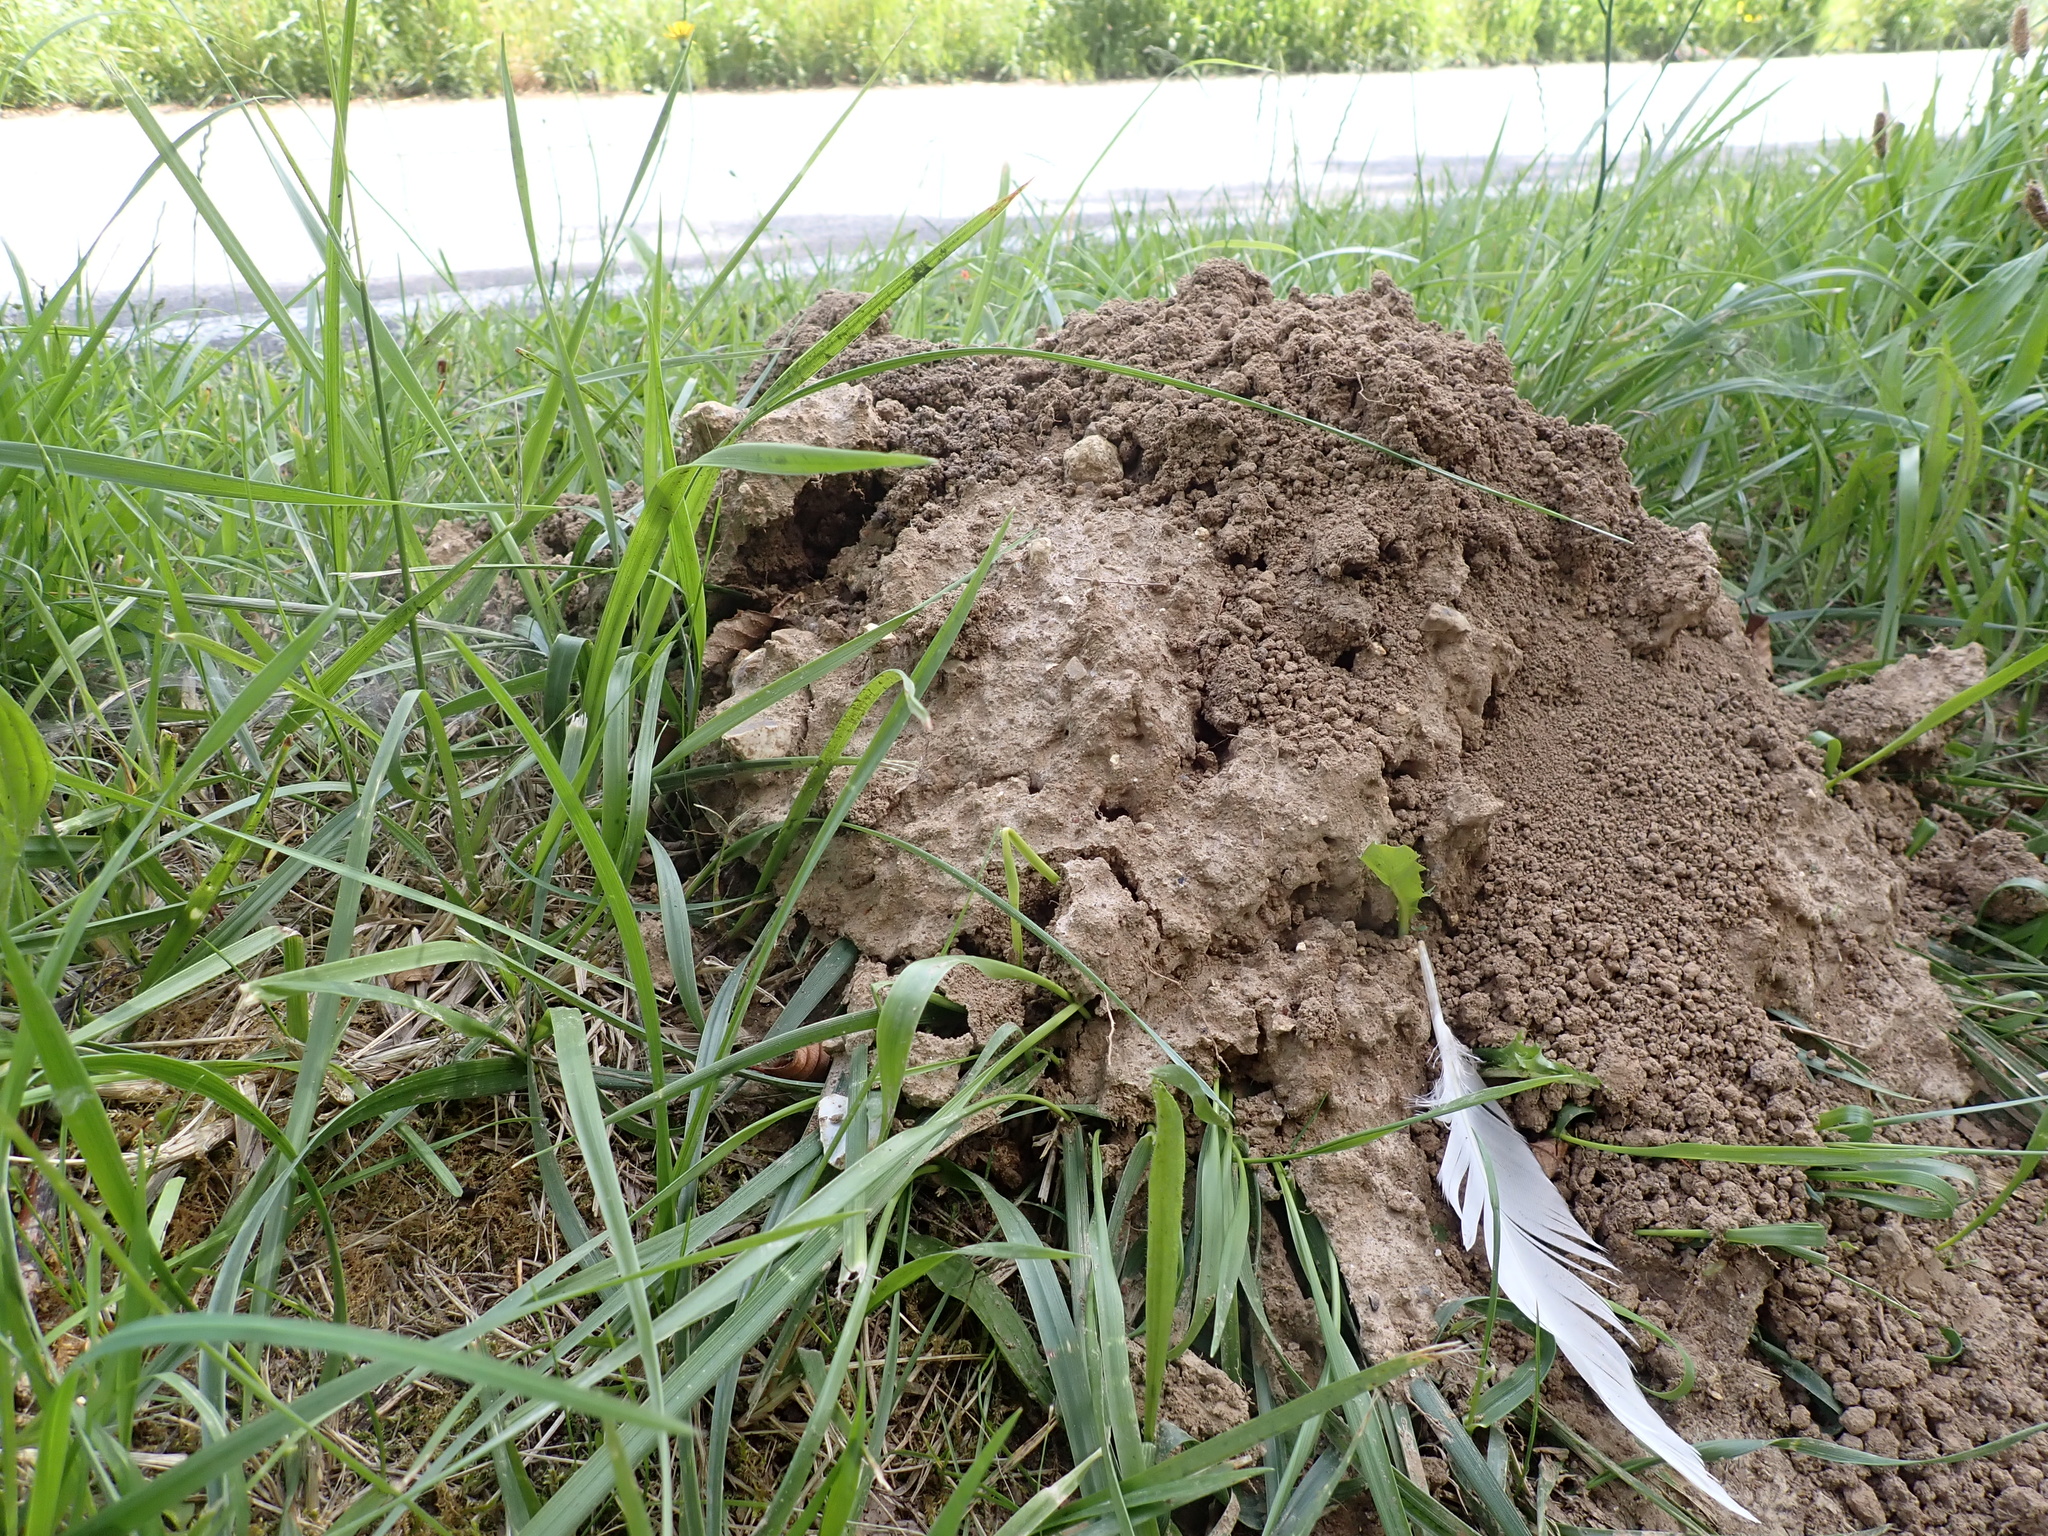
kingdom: Animalia
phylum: Chordata
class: Mammalia
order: Soricomorpha
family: Talpidae
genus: Talpa
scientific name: Talpa europaea
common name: European mole
